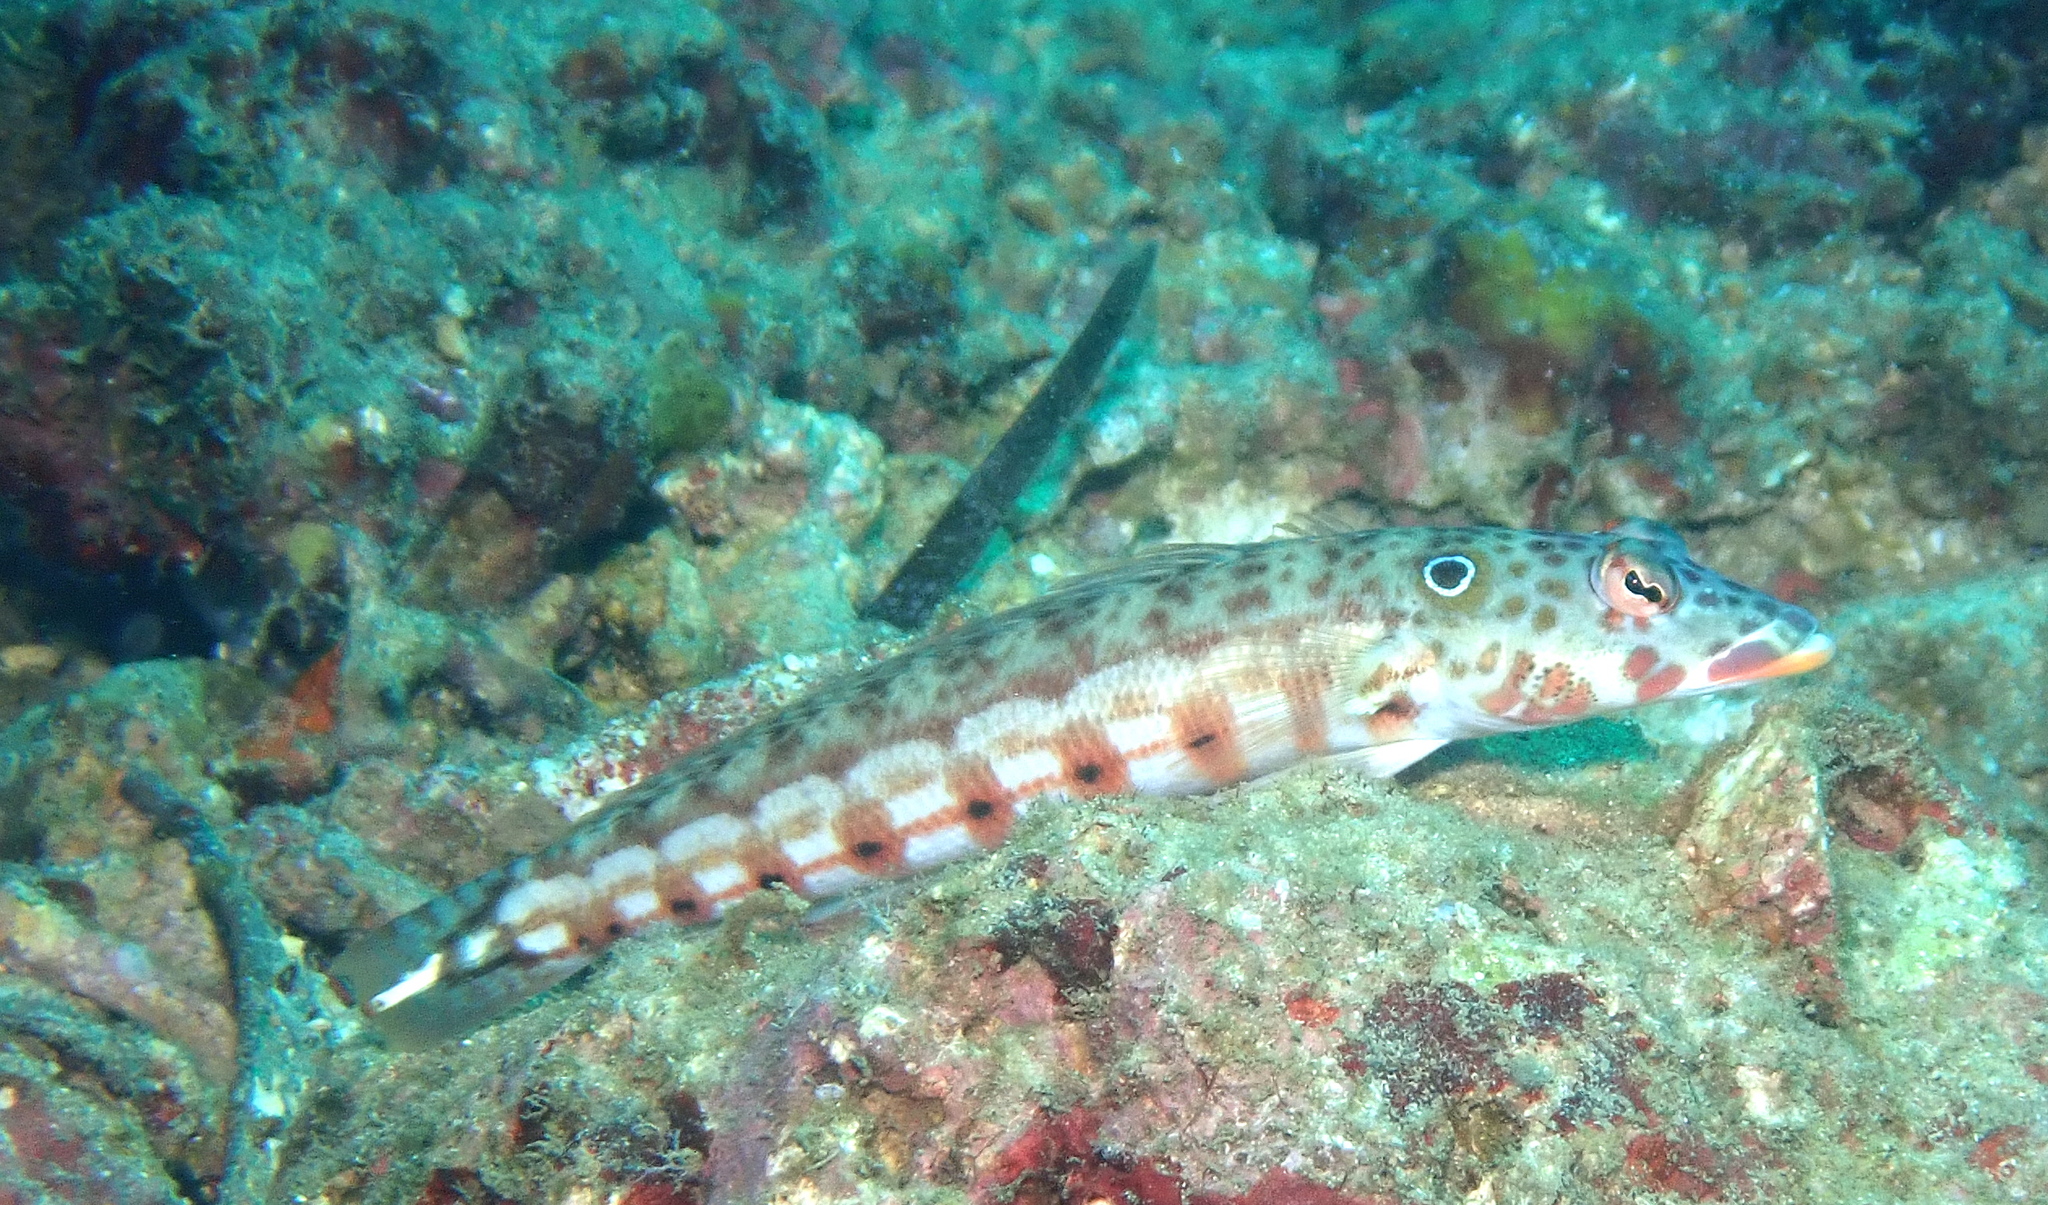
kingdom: Animalia
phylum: Chordata
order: Perciformes
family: Pinguipedidae
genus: Parapercis
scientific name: Parapercis clathrata
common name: Latticed sandperch
